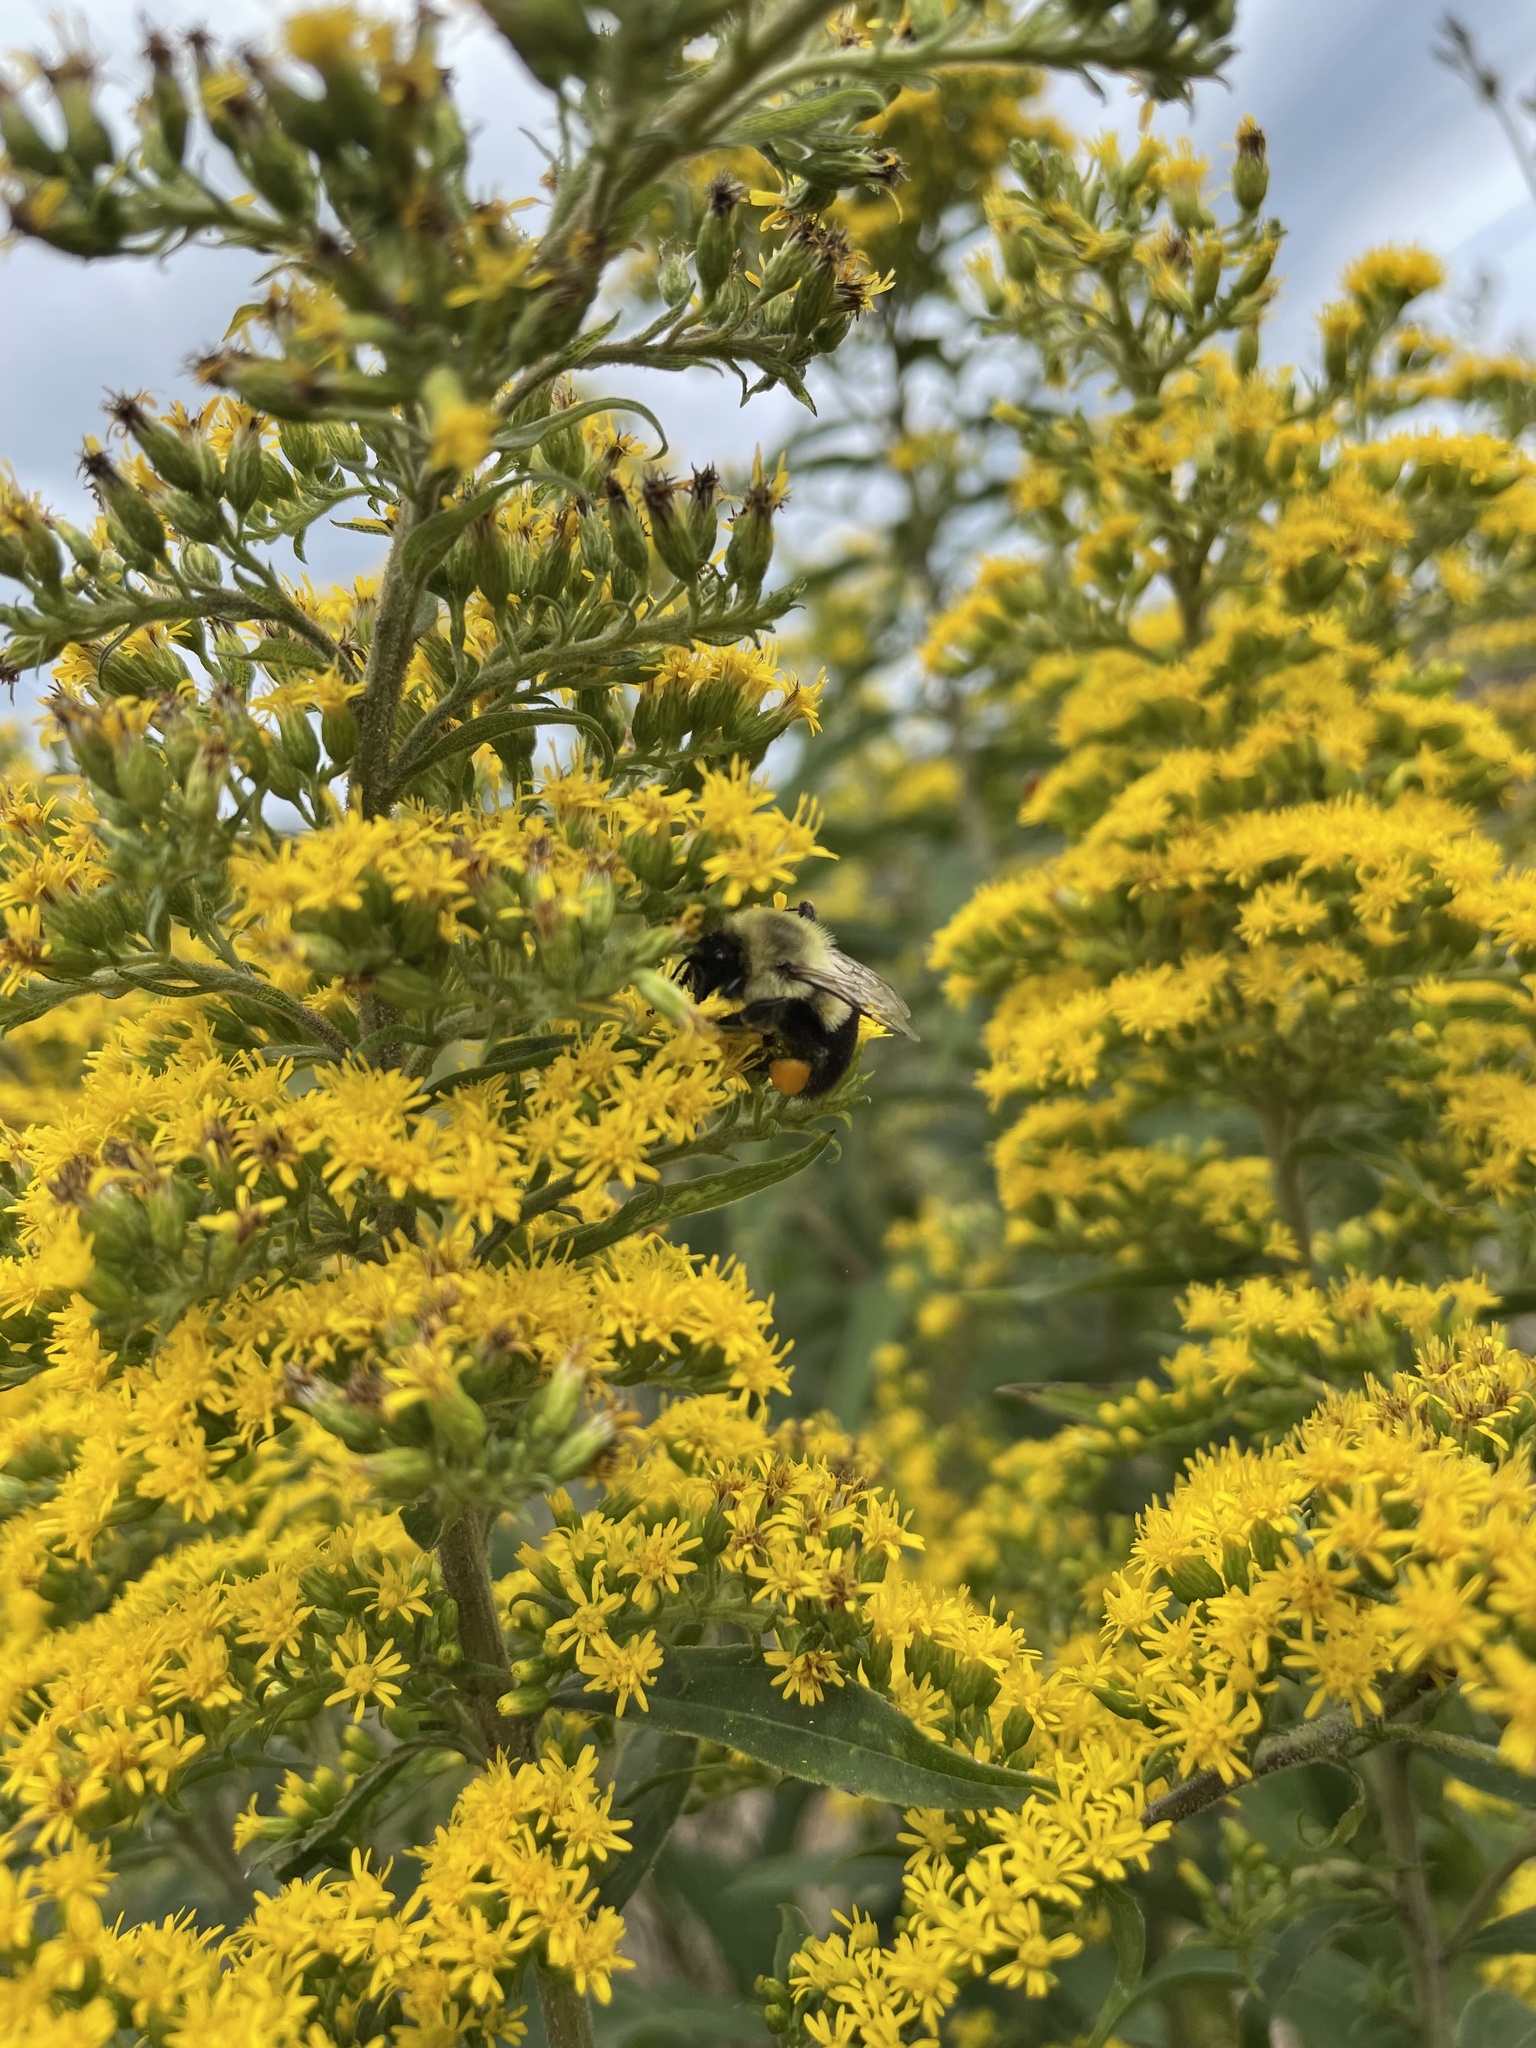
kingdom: Animalia
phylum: Arthropoda
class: Insecta
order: Hymenoptera
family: Apidae
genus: Bombus
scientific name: Bombus impatiens
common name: Common eastern bumble bee
